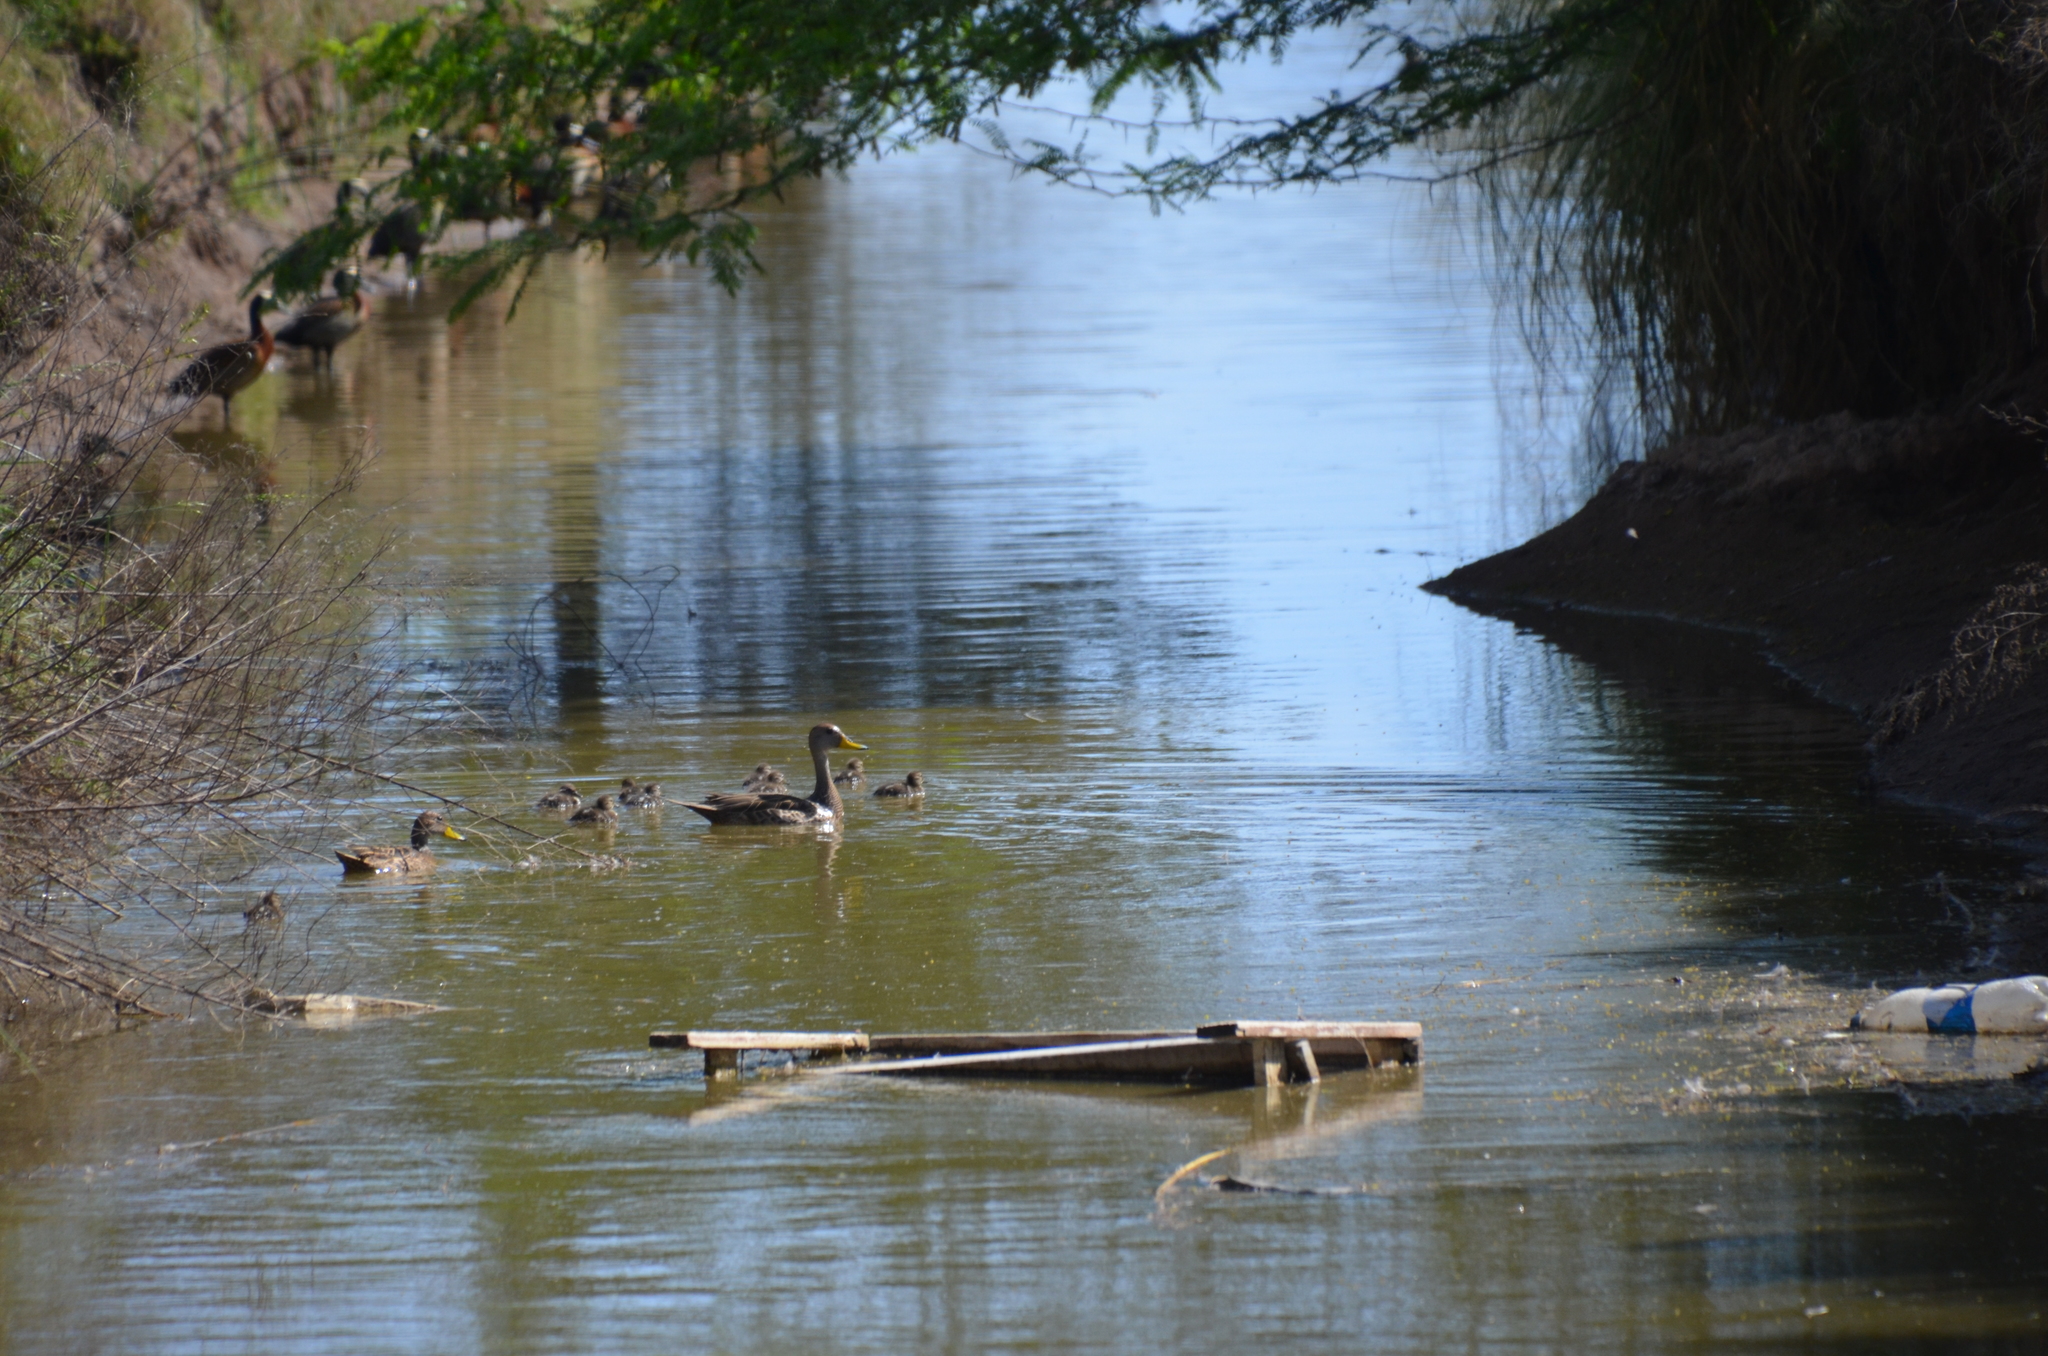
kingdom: Animalia
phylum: Chordata
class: Aves
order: Anseriformes
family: Anatidae
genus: Anas
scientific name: Anas georgica
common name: Yellow-billed pintail
